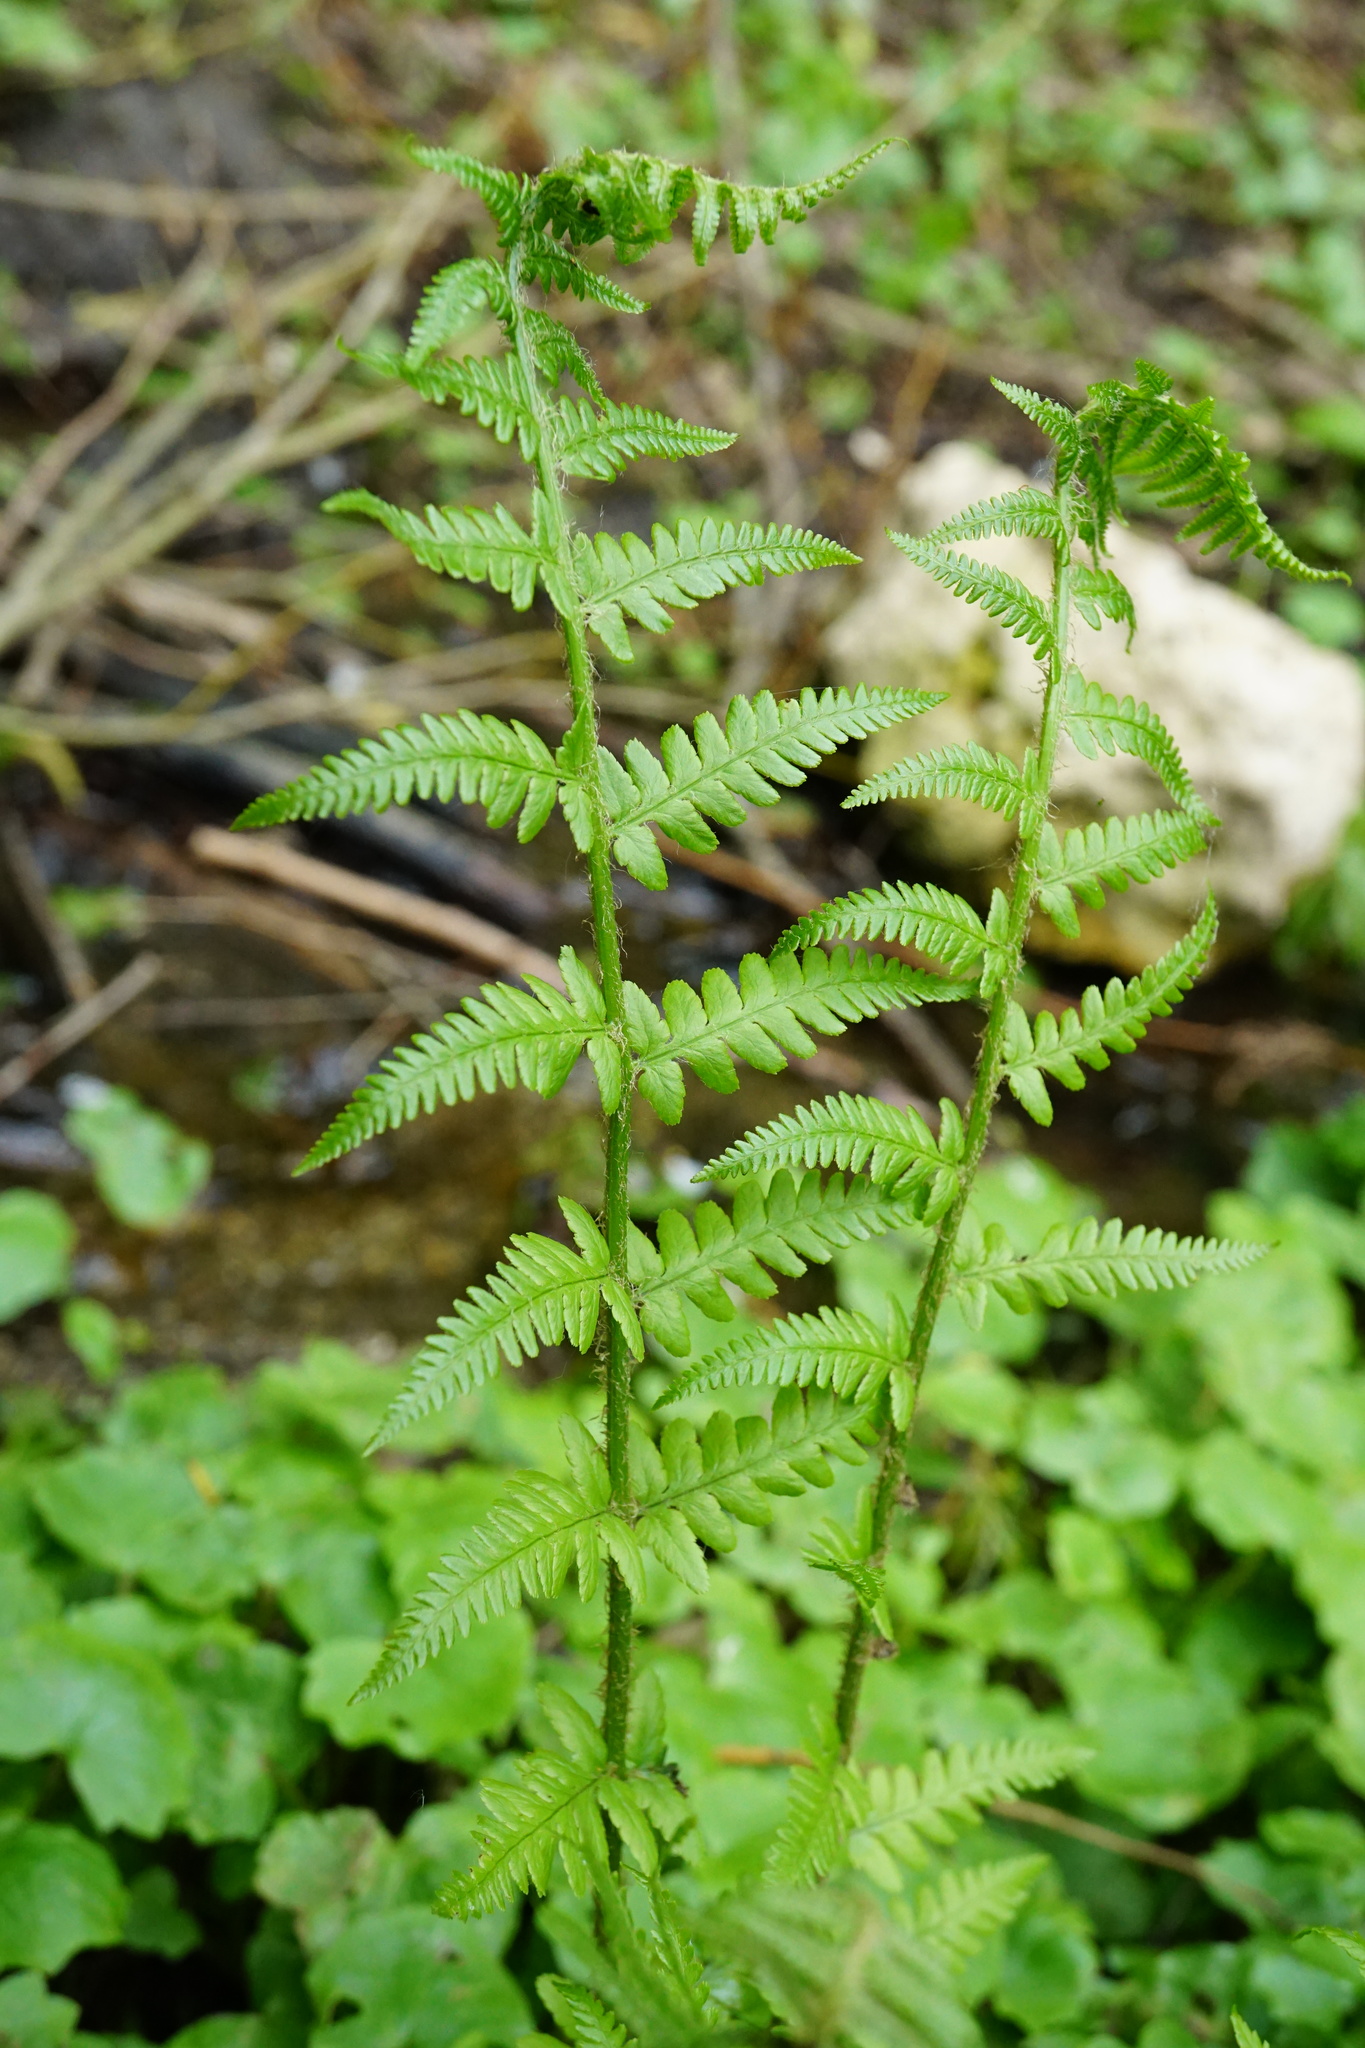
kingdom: Plantae
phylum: Tracheophyta
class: Polypodiopsida
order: Polypodiales
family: Dryopteridaceae
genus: Dryopteris
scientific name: Dryopteris filix-mas
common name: Male fern
